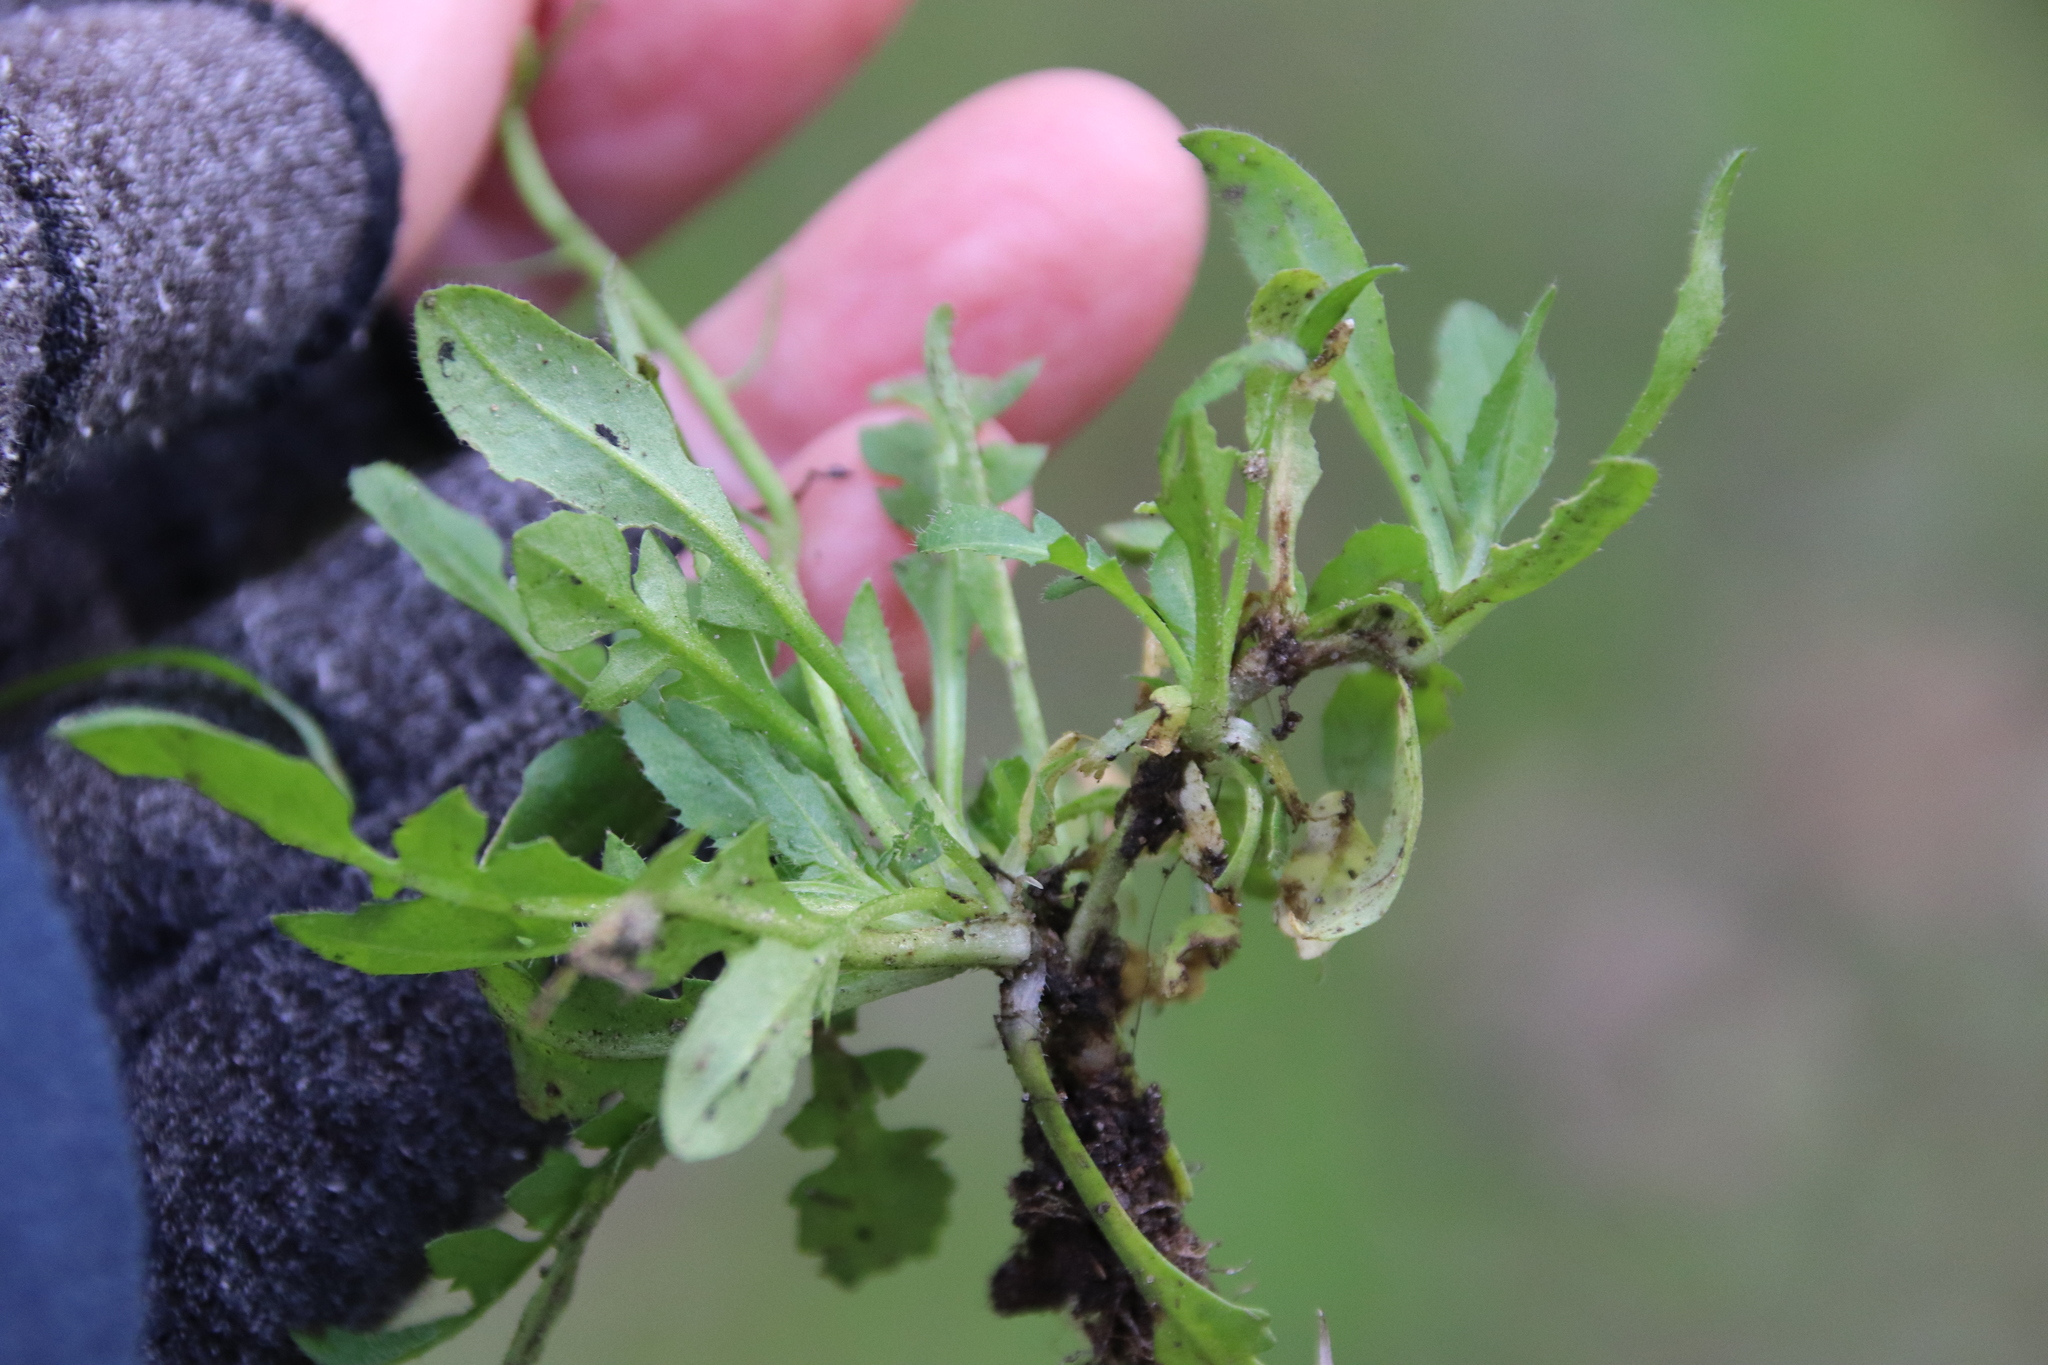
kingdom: Plantae
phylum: Tracheophyta
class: Magnoliopsida
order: Brassicales
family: Brassicaceae
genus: Capsella
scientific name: Capsella bursa-pastoris
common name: Shepherd's purse
